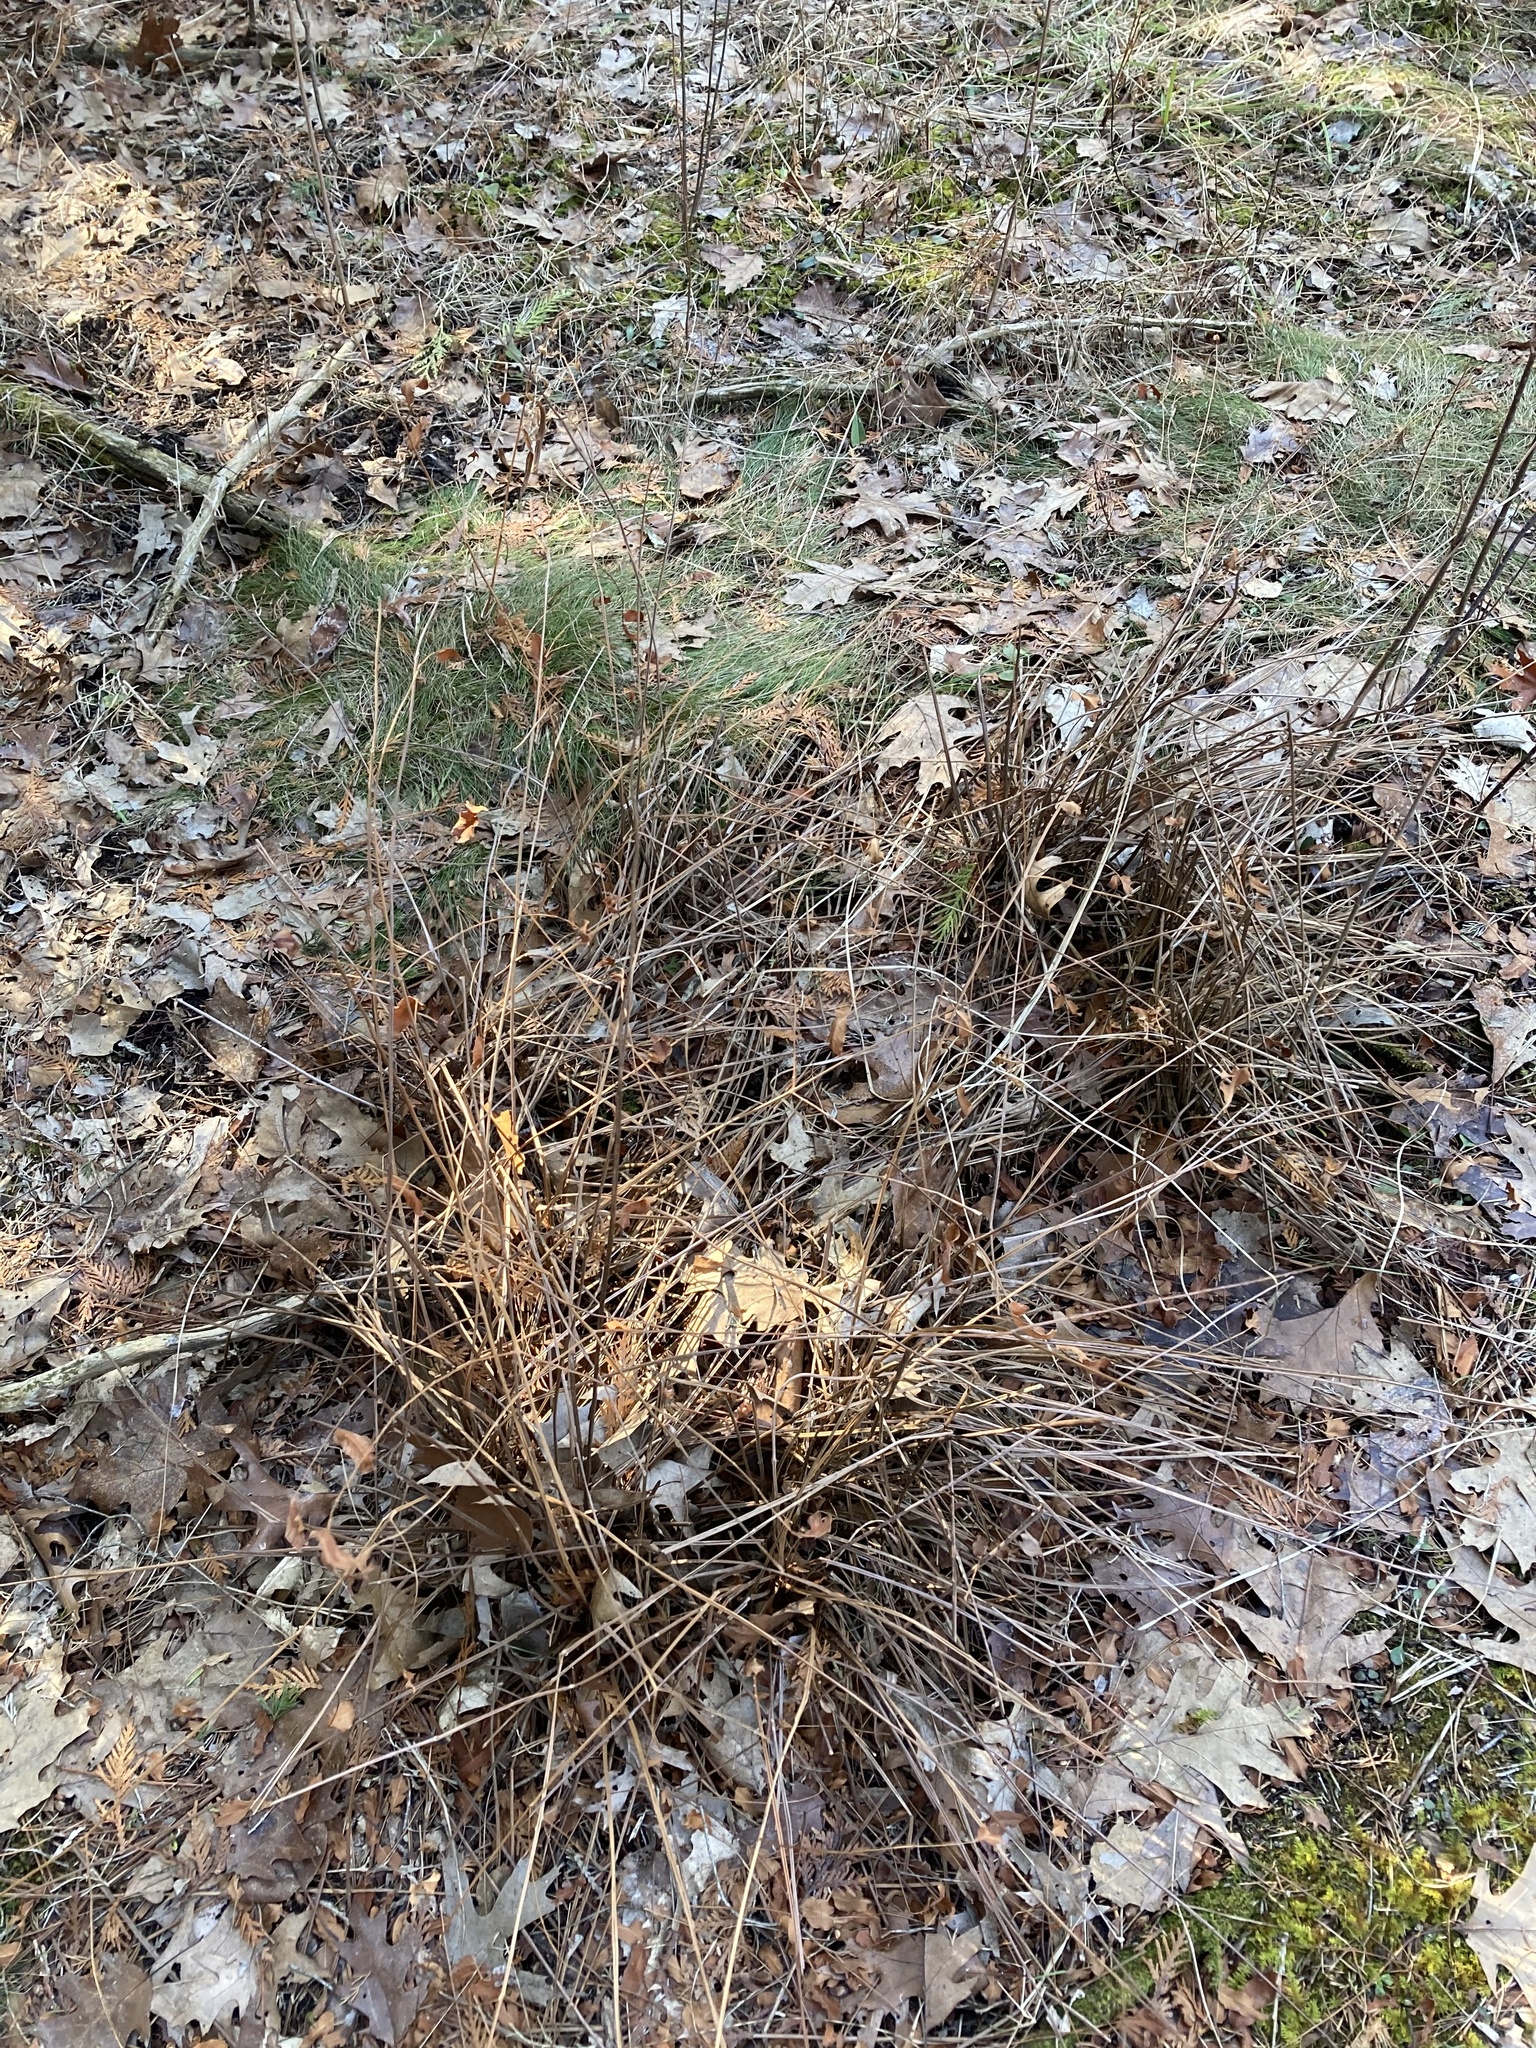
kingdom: Plantae
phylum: Tracheophyta
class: Polypodiopsida
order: Osmundales
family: Osmundaceae
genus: Osmunda
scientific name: Osmunda spectabilis
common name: American royal fern
